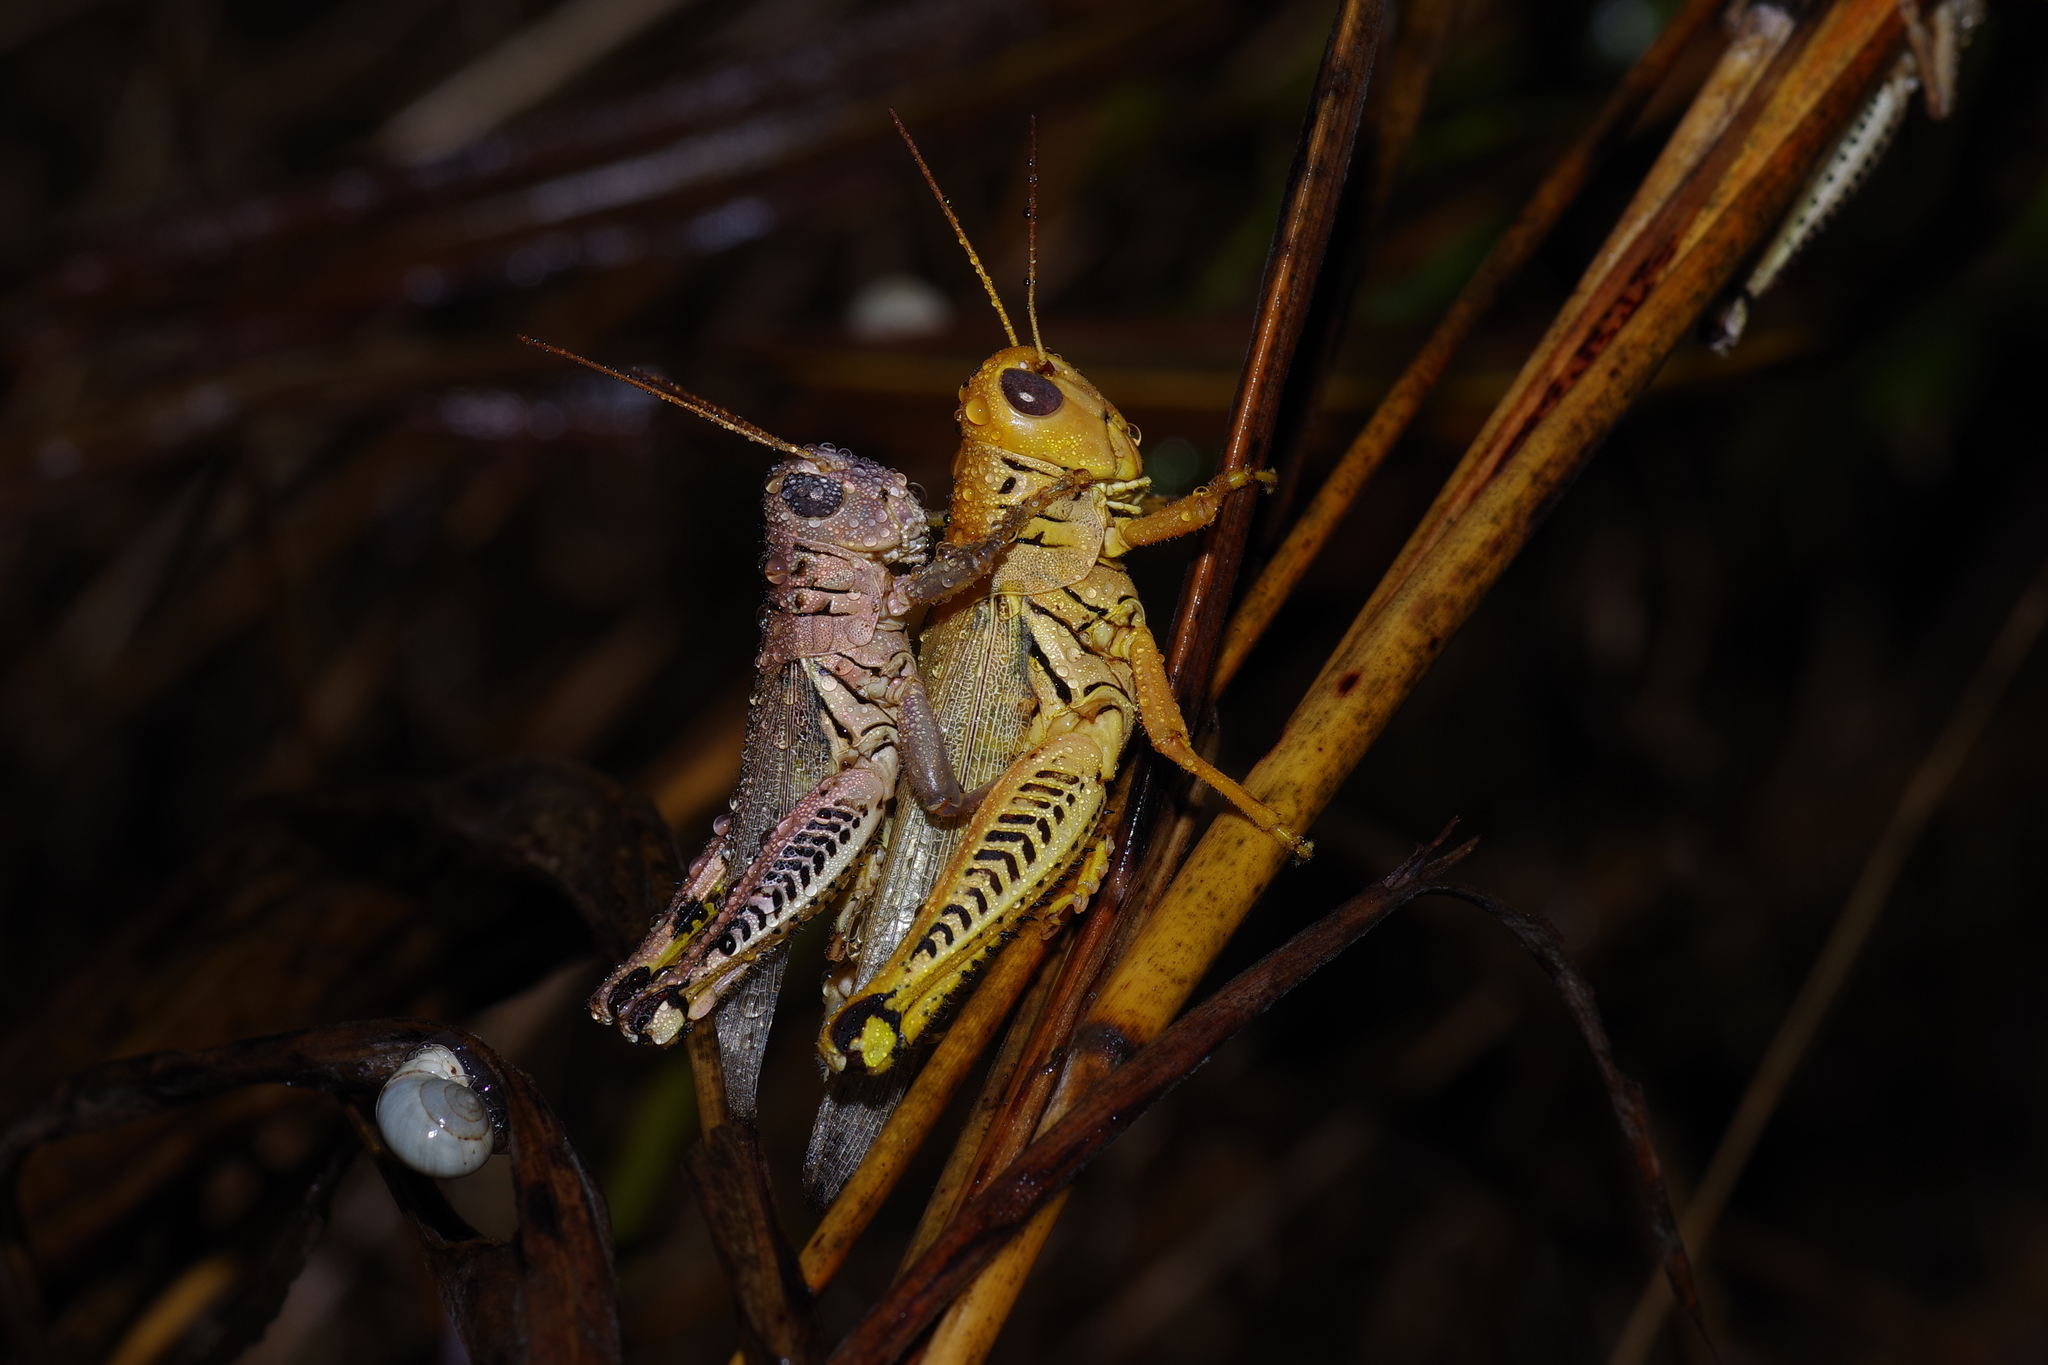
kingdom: Animalia
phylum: Arthropoda
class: Insecta
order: Orthoptera
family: Acrididae
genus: Melanoplus
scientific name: Melanoplus differentialis
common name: Differential grasshopper
